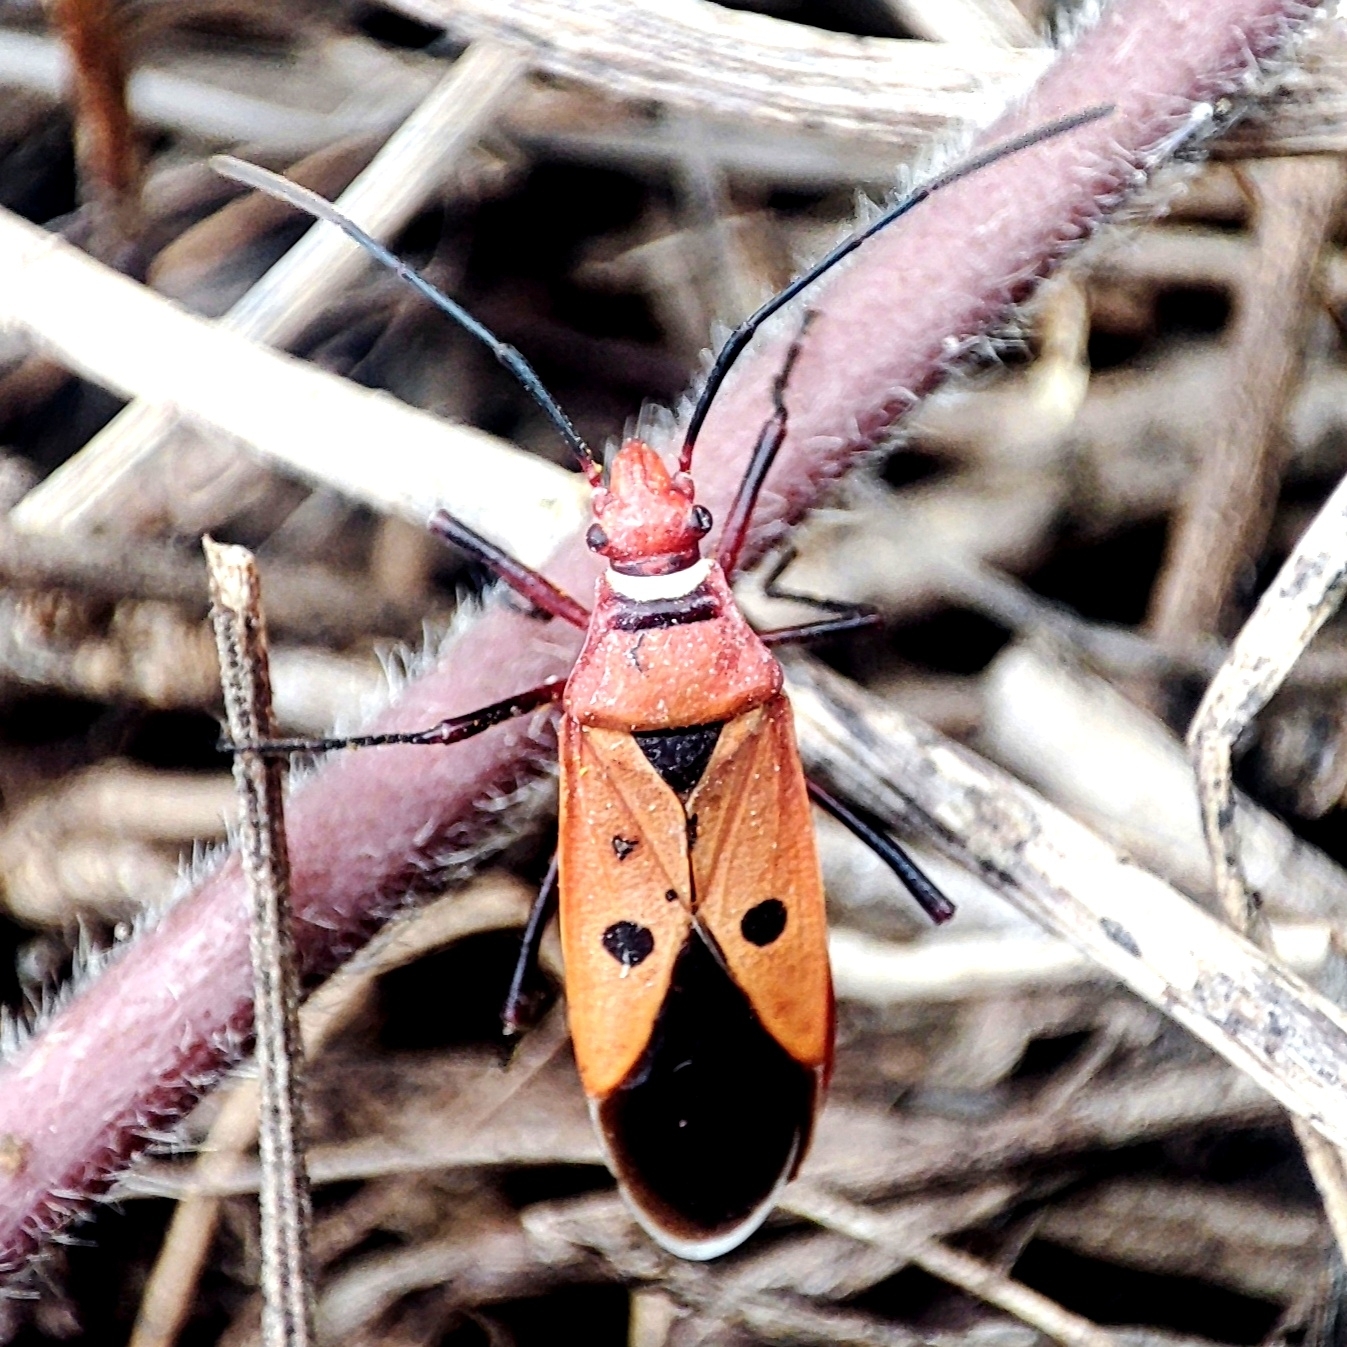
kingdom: Animalia
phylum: Arthropoda
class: Insecta
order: Hemiptera
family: Pyrrhocoridae
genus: Dysdercus
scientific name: Dysdercus cingulatus
